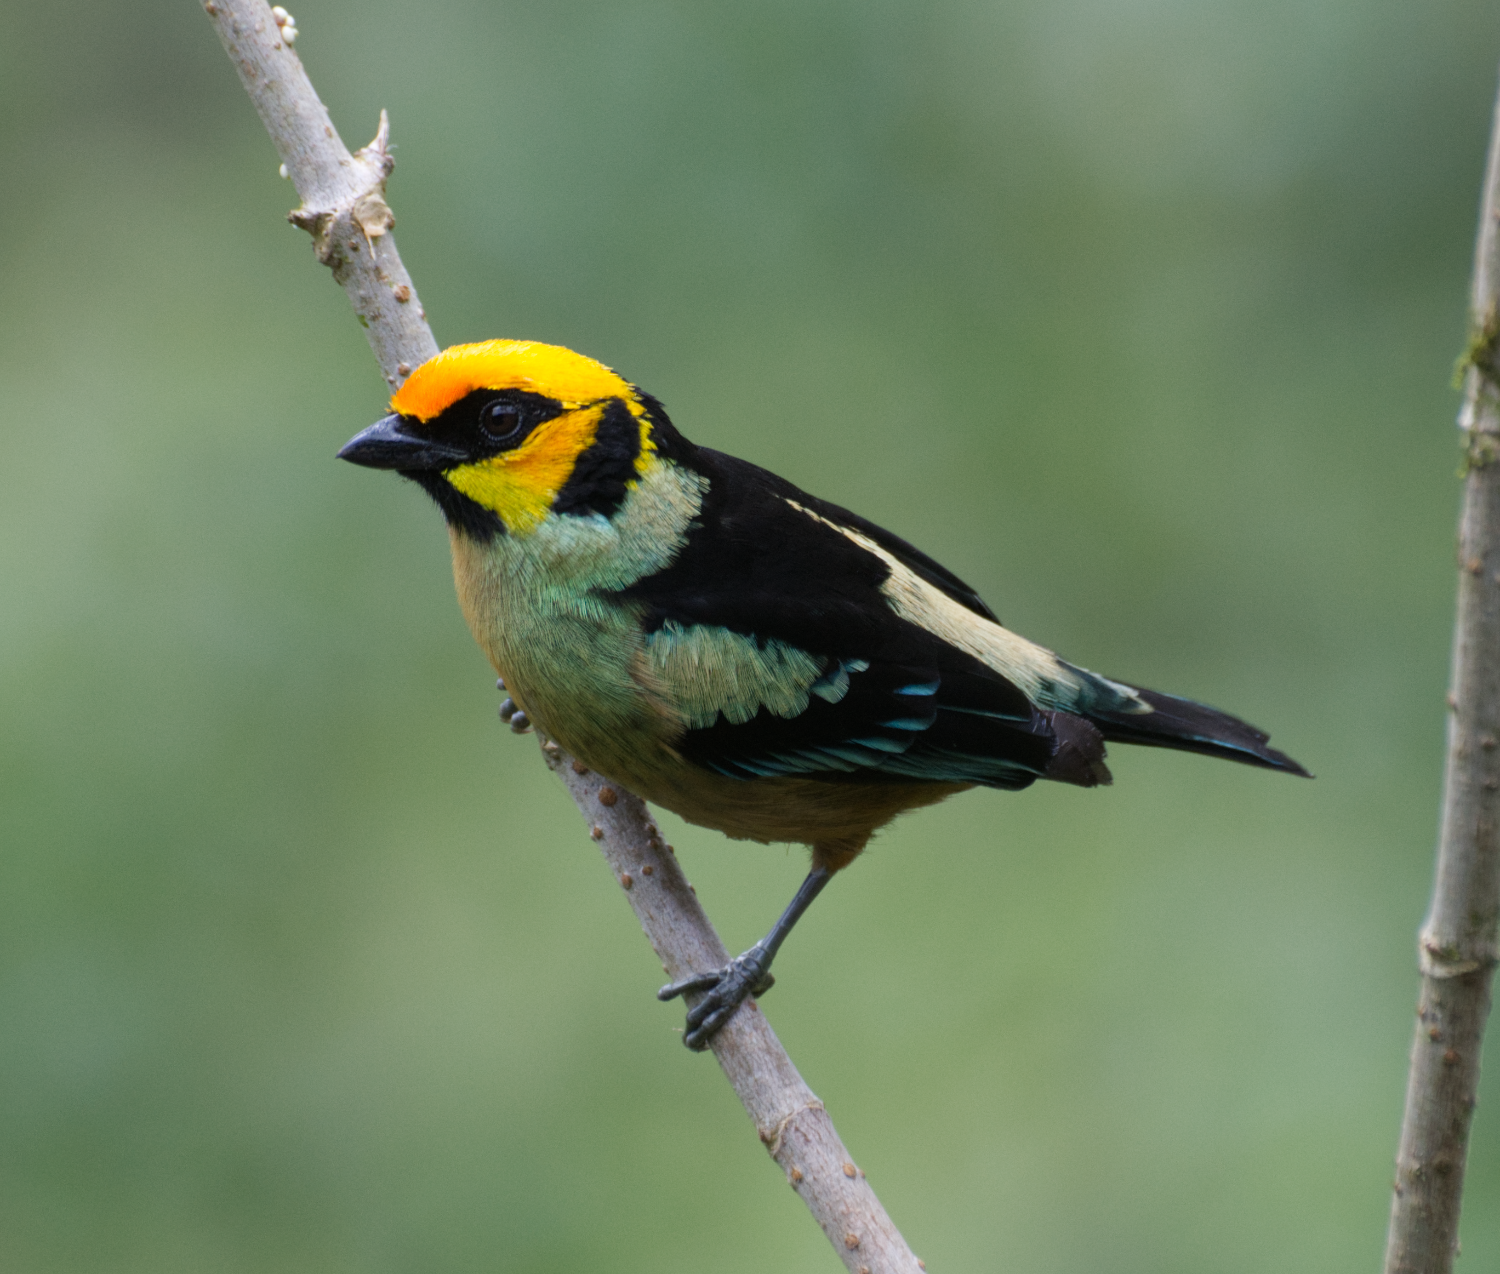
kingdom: Animalia
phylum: Chordata
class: Aves
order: Passeriformes
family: Thraupidae
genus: Tangara
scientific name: Tangara parzudakii
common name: Flame-faced tanager
